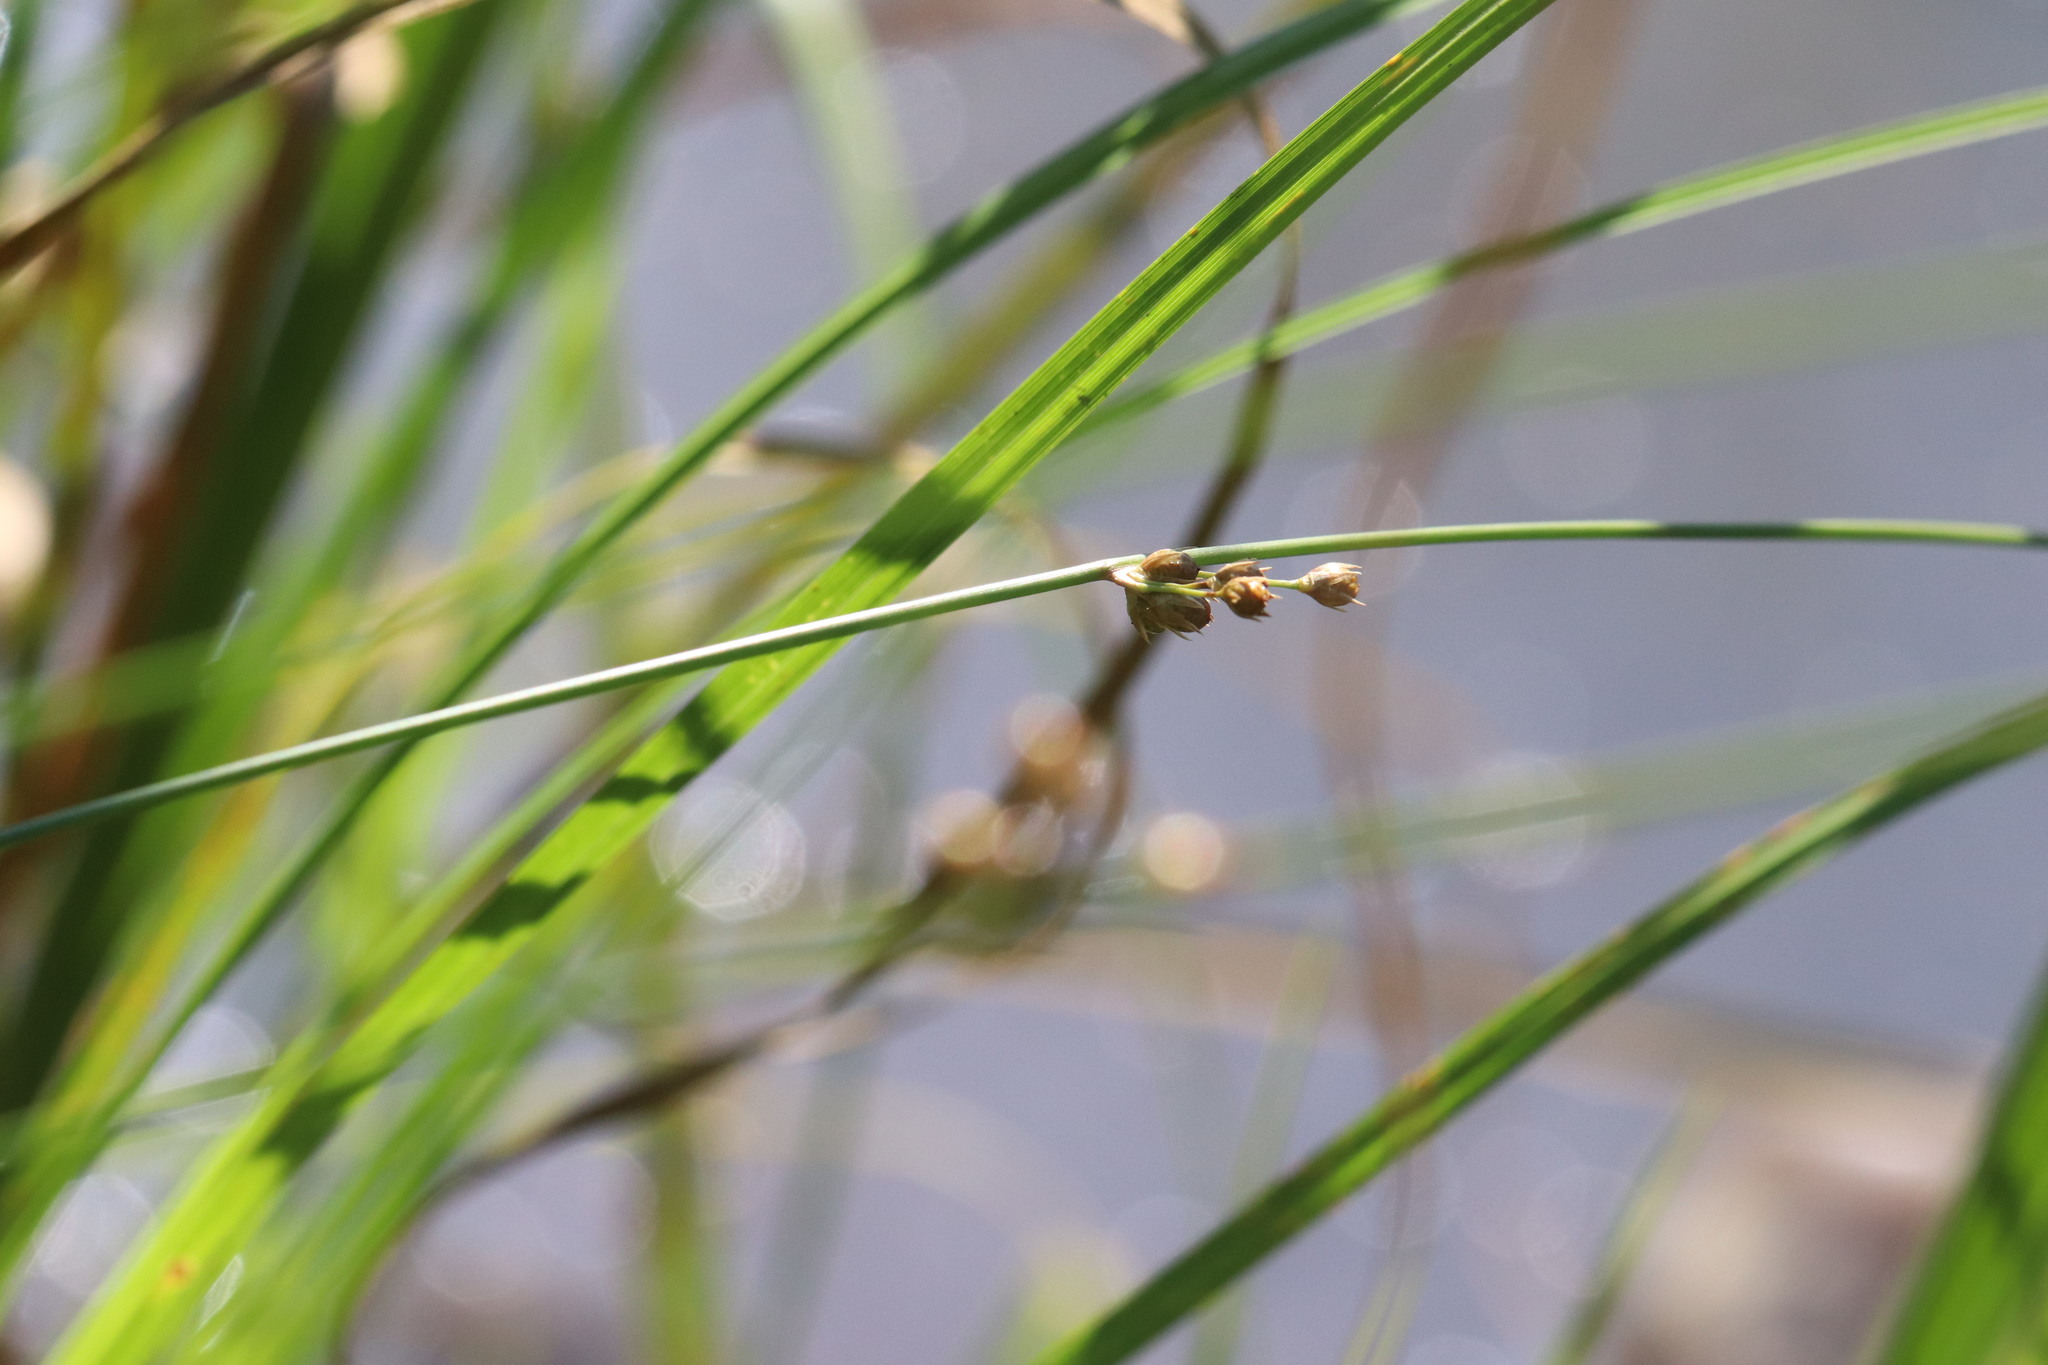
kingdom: Plantae
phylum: Tracheophyta
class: Liliopsida
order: Poales
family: Juncaceae
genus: Juncus
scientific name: Juncus filiformis
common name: Thread rush
